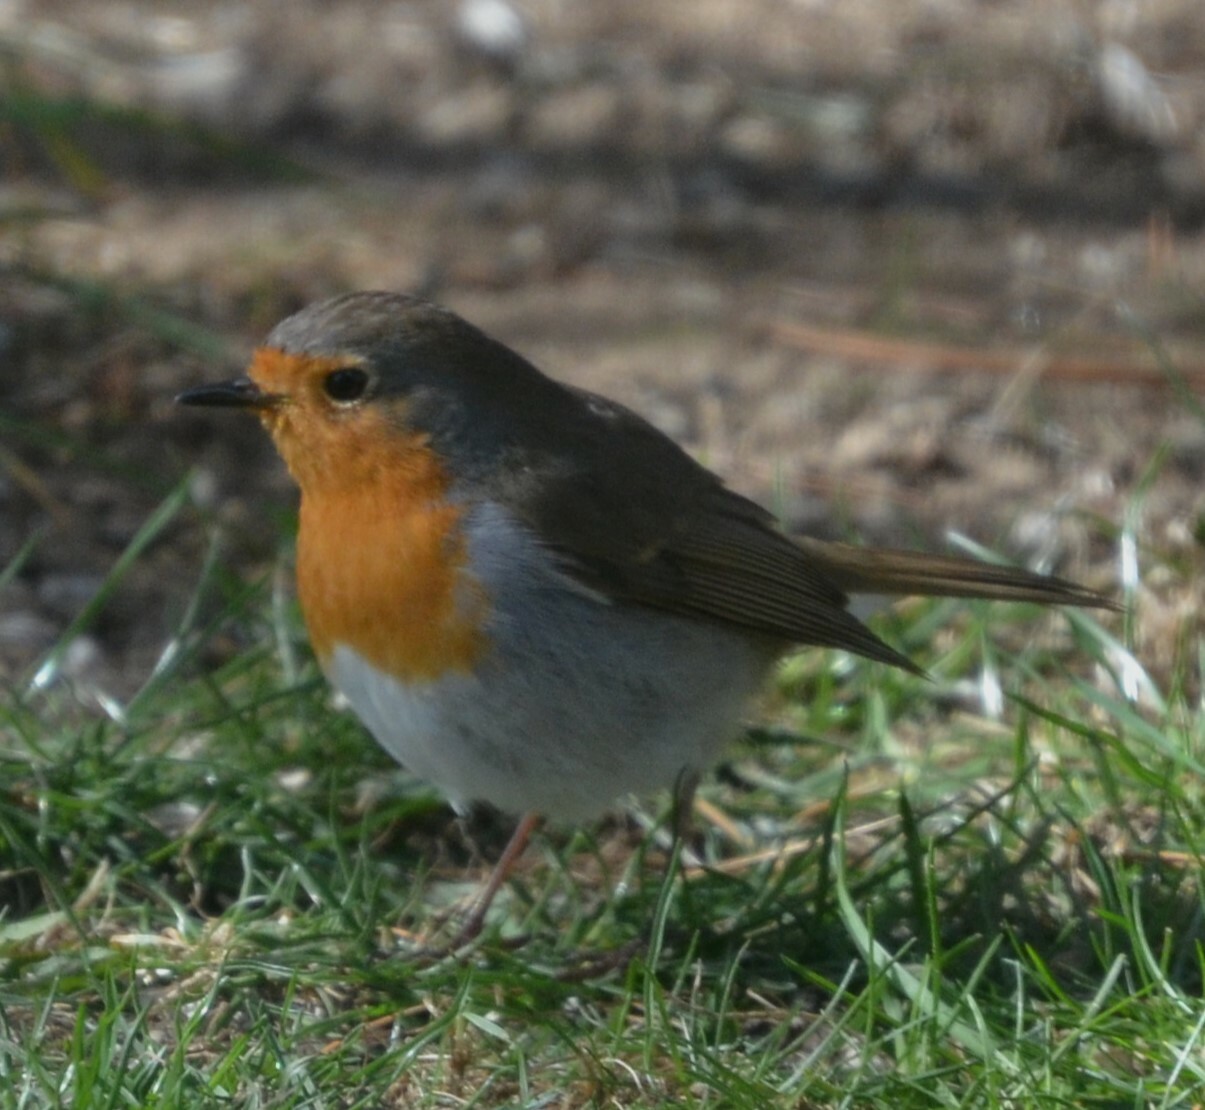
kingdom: Animalia
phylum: Chordata
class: Aves
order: Passeriformes
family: Muscicapidae
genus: Erithacus
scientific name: Erithacus rubecula
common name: European robin
